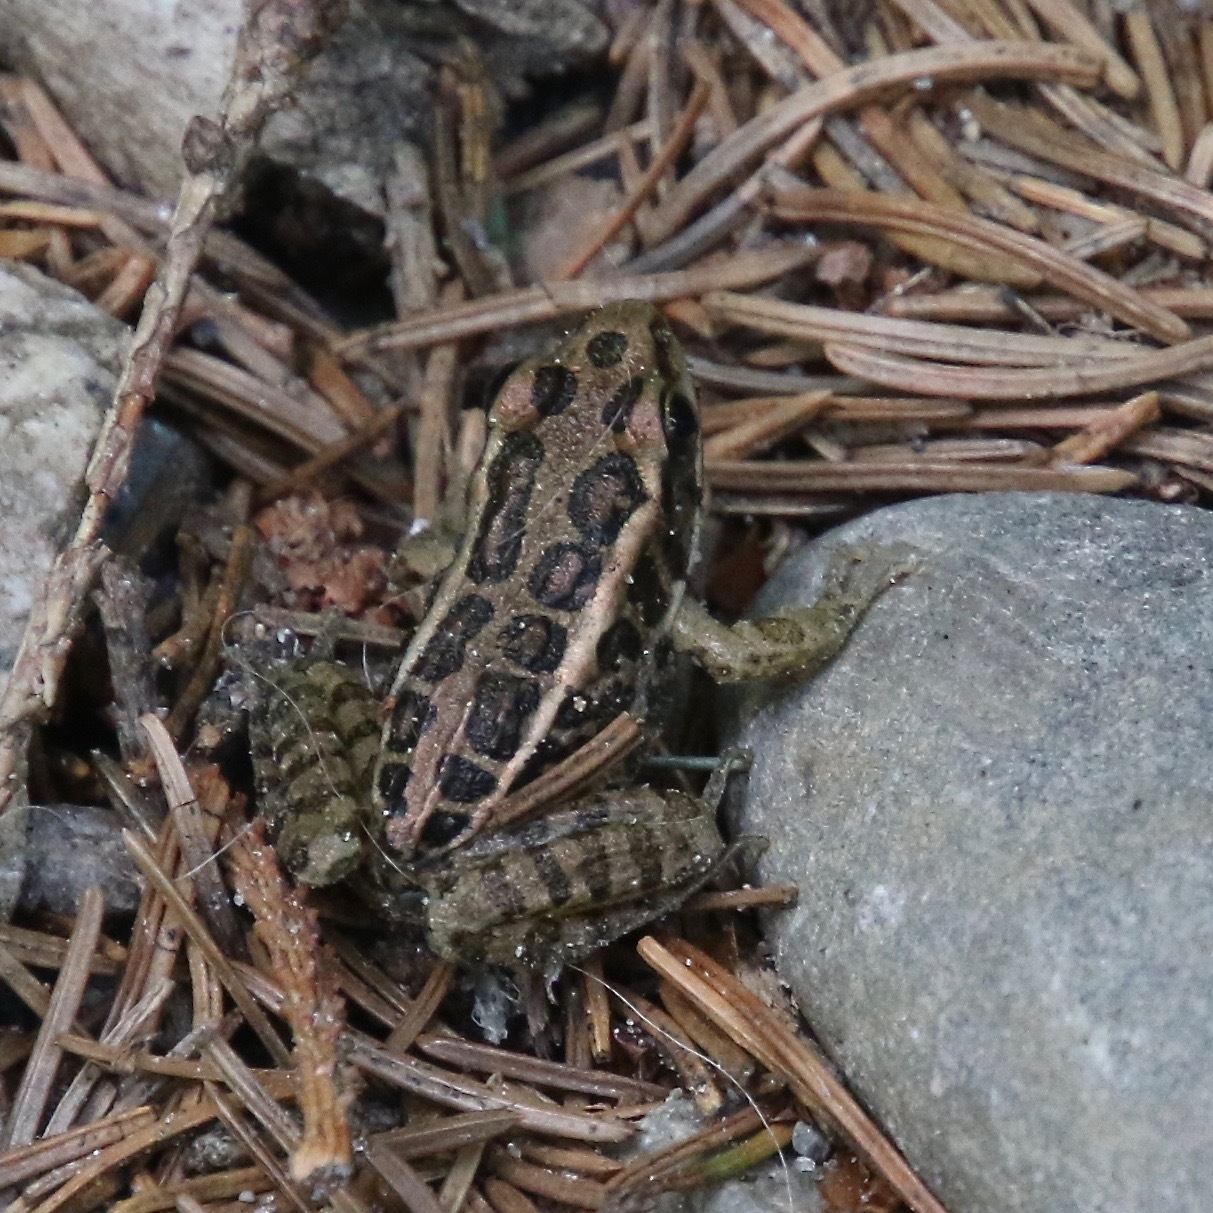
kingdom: Animalia
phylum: Chordata
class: Amphibia
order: Anura
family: Ranidae
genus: Lithobates
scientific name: Lithobates palustris
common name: Pickerel frog
